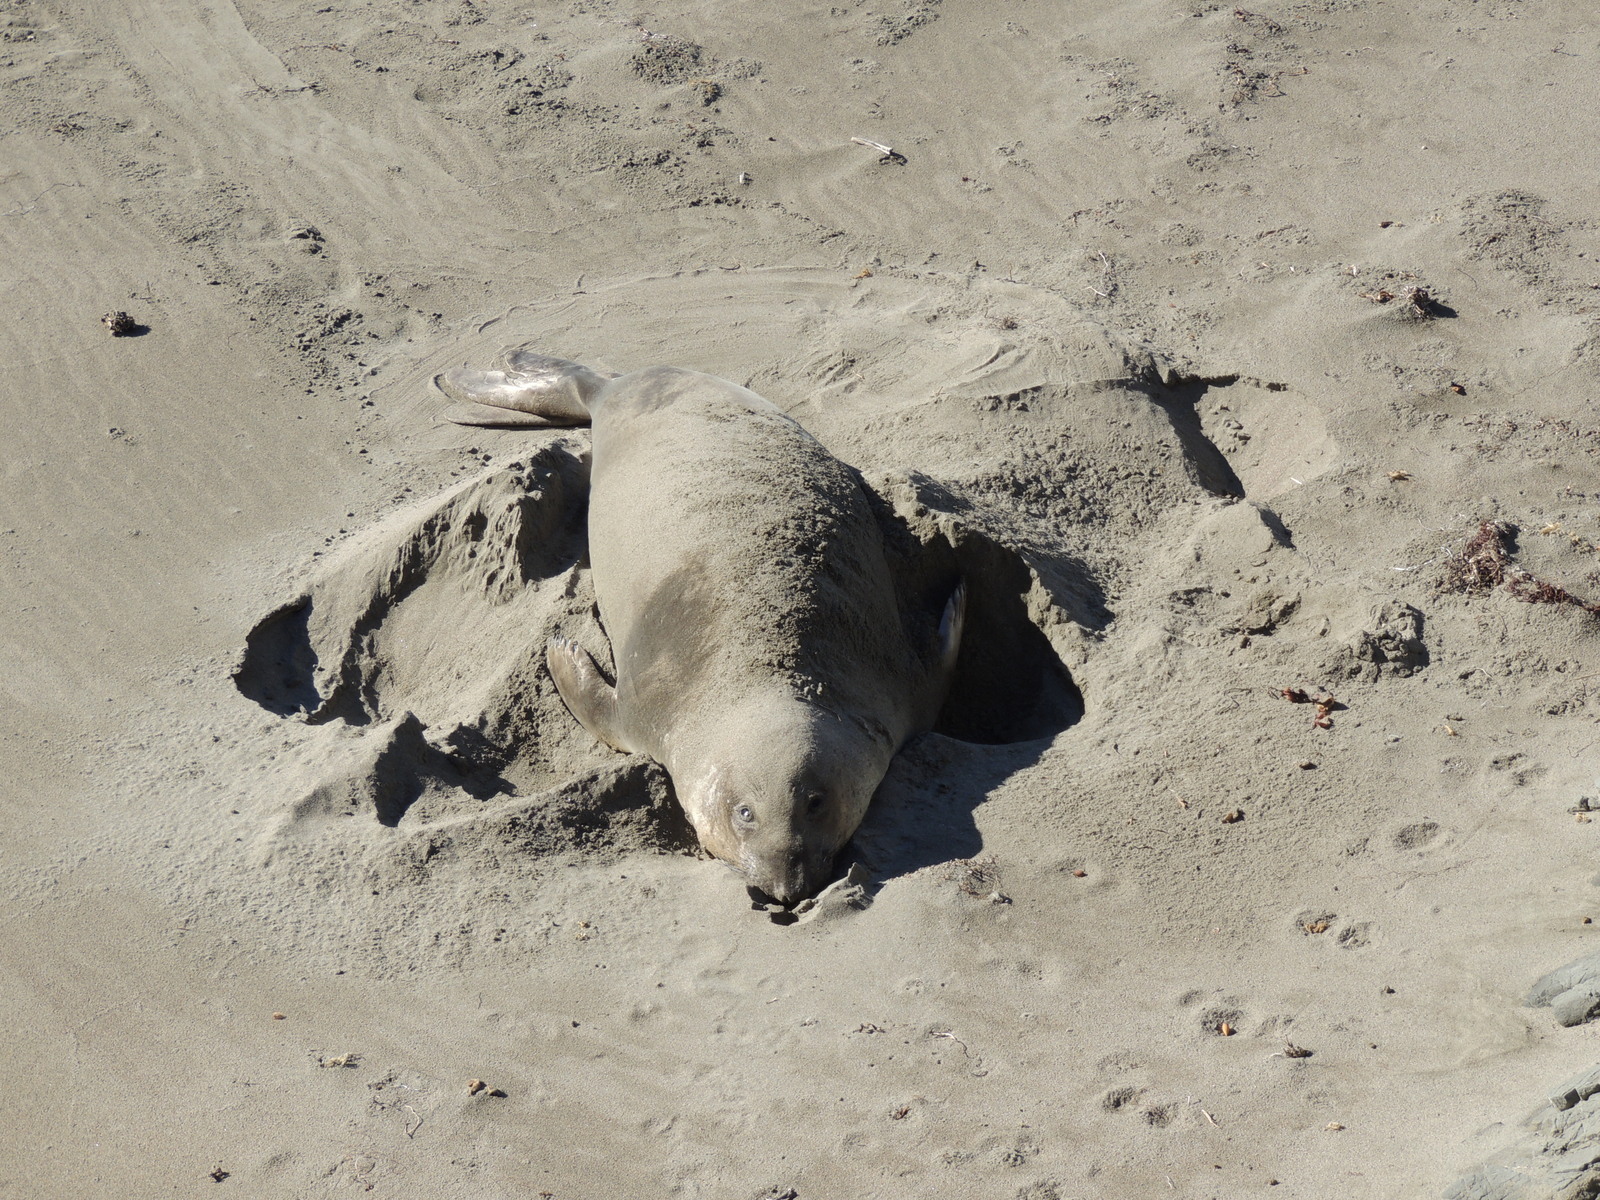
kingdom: Animalia
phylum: Chordata
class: Mammalia
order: Carnivora
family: Phocidae
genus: Mirounga
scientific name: Mirounga angustirostris
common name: Northern elephant seal
